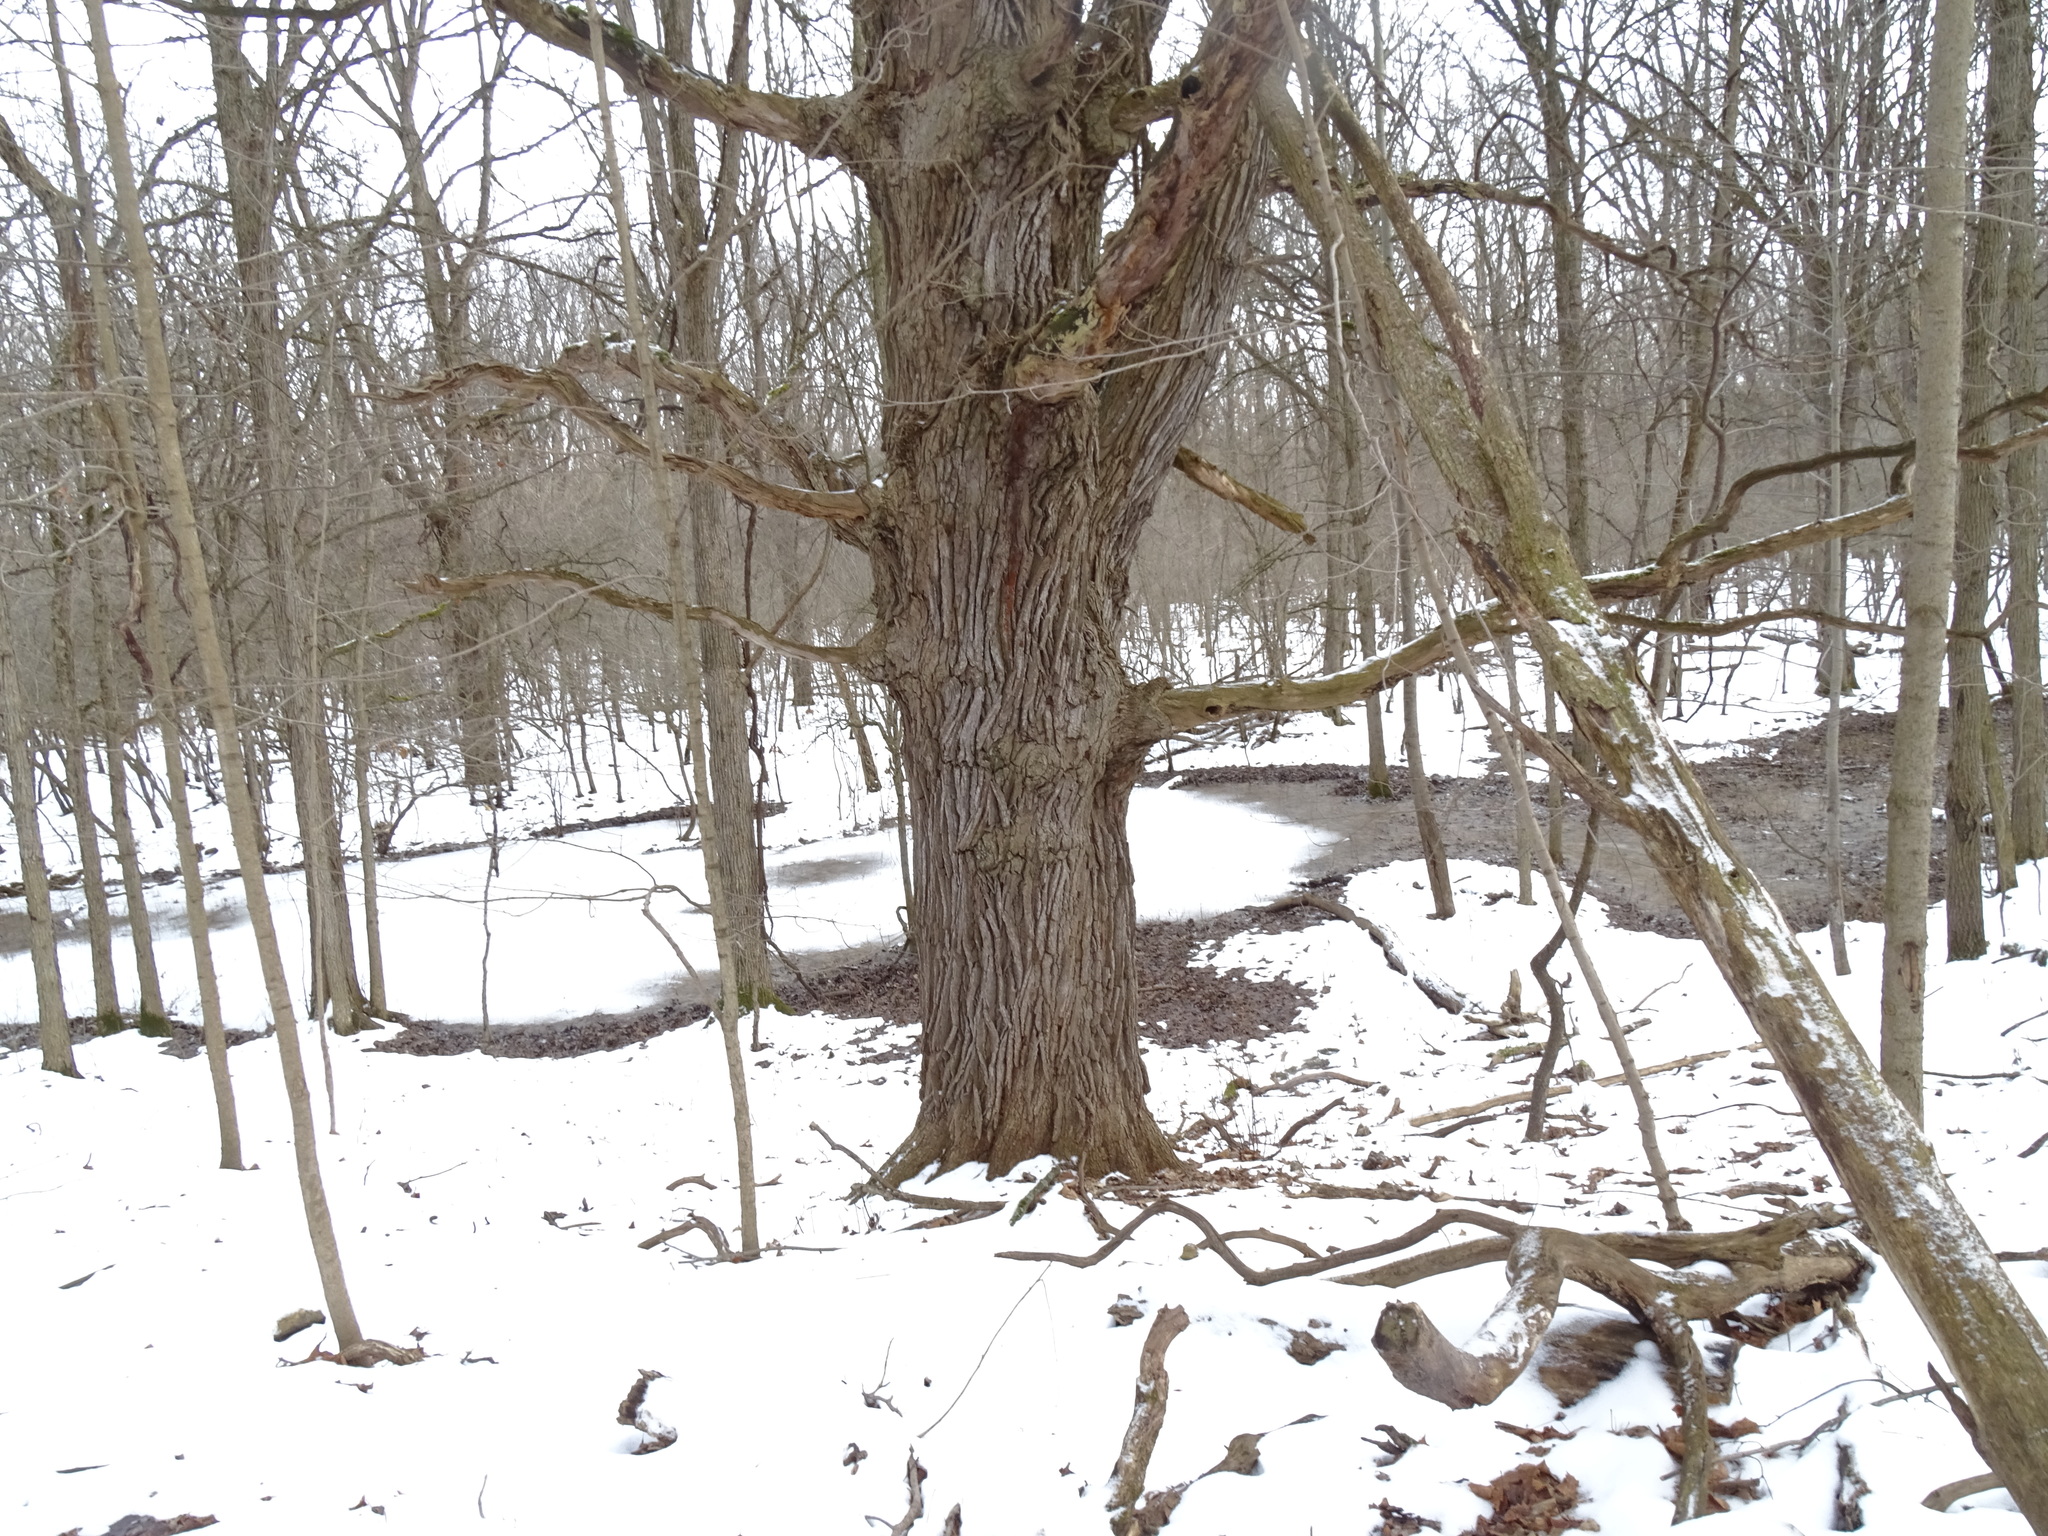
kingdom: Plantae
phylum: Tracheophyta
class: Magnoliopsida
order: Fagales
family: Fagaceae
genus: Quercus
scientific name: Quercus macrocarpa
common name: Bur oak
